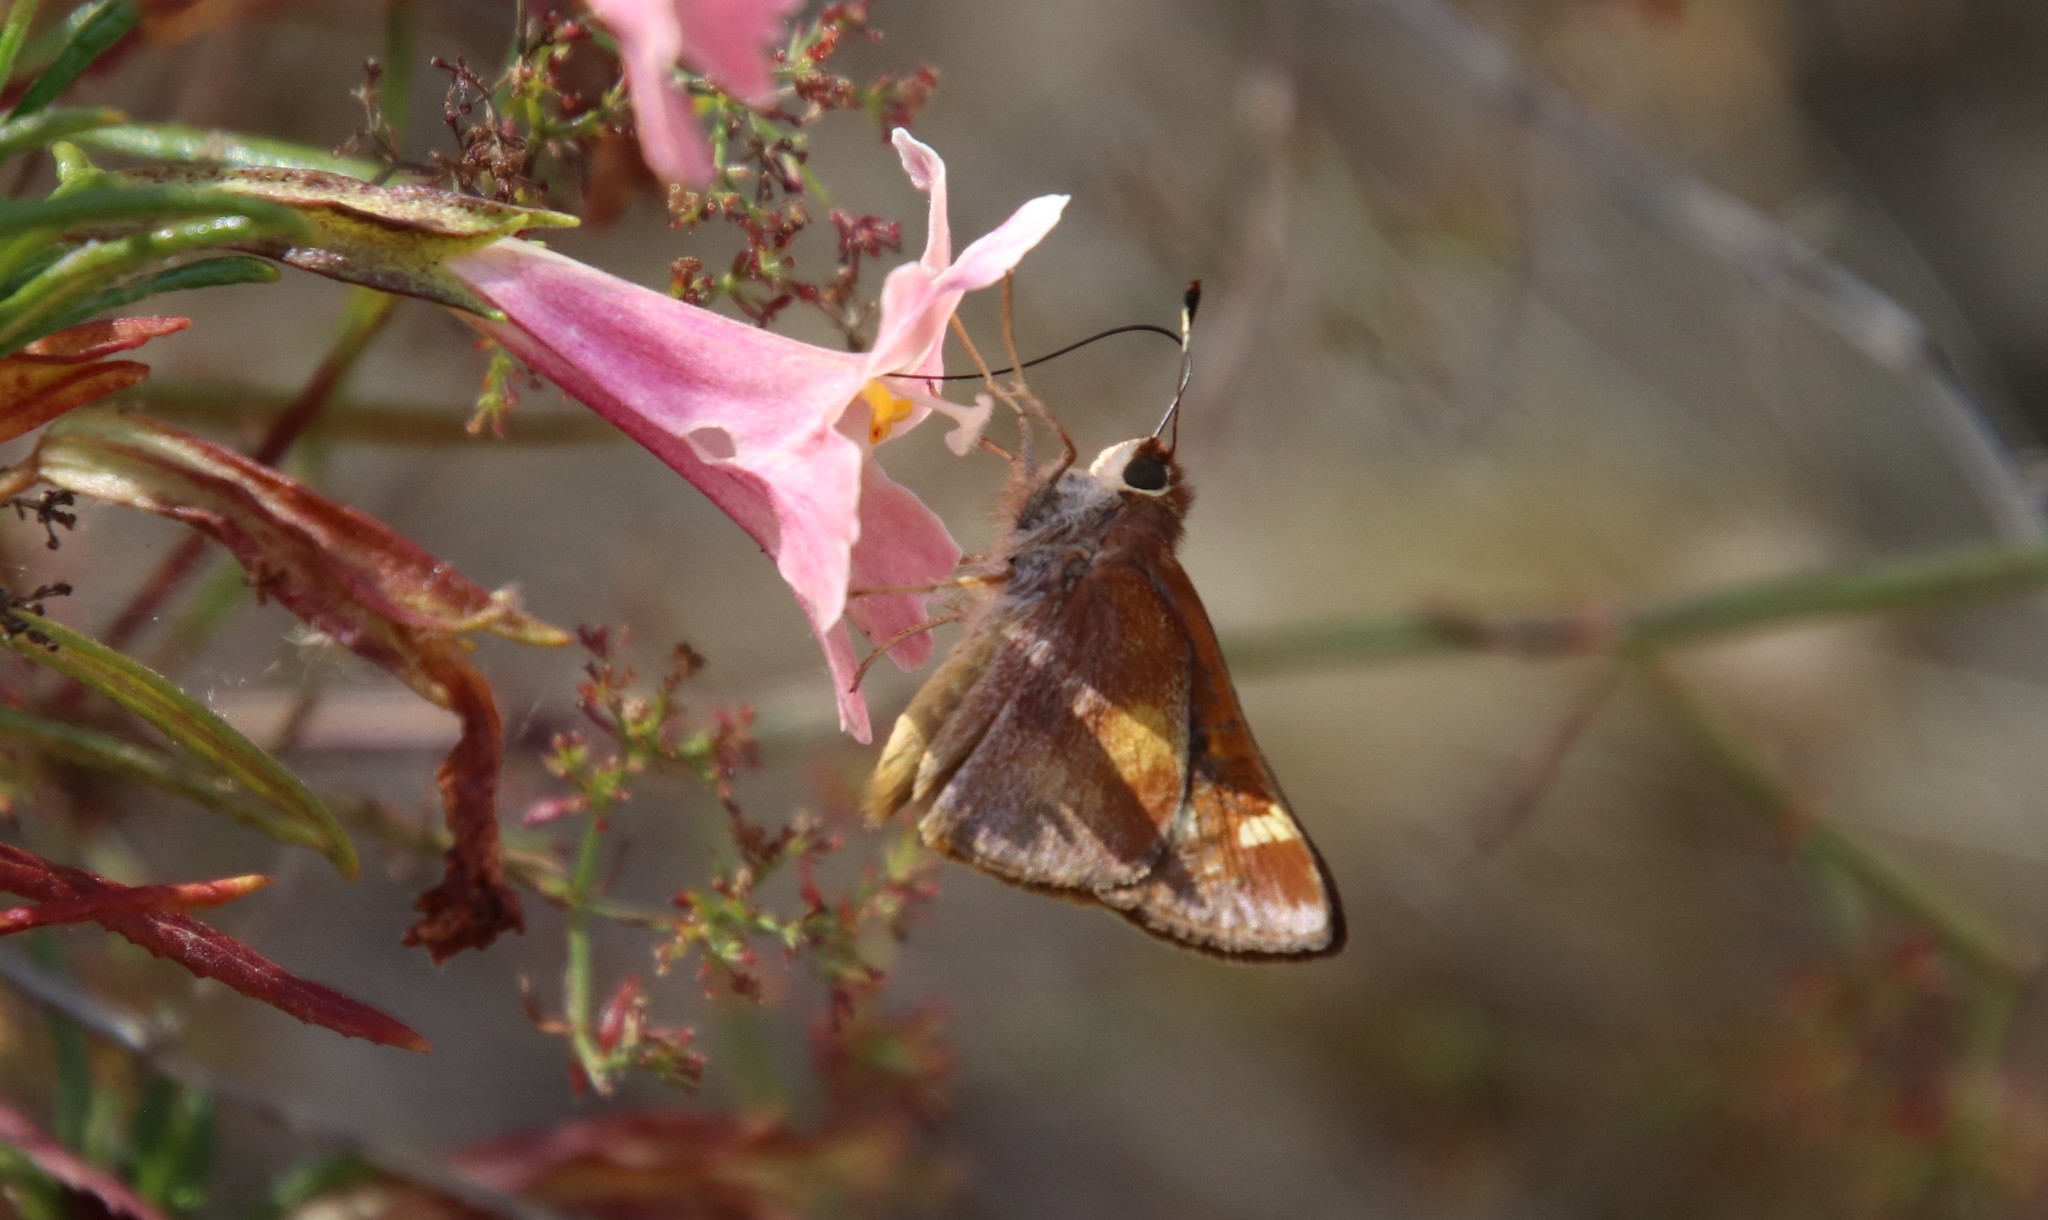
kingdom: Animalia
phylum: Arthropoda
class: Insecta
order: Lepidoptera
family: Hesperiidae
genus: Lon
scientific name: Lon melane
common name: Umber skipper
